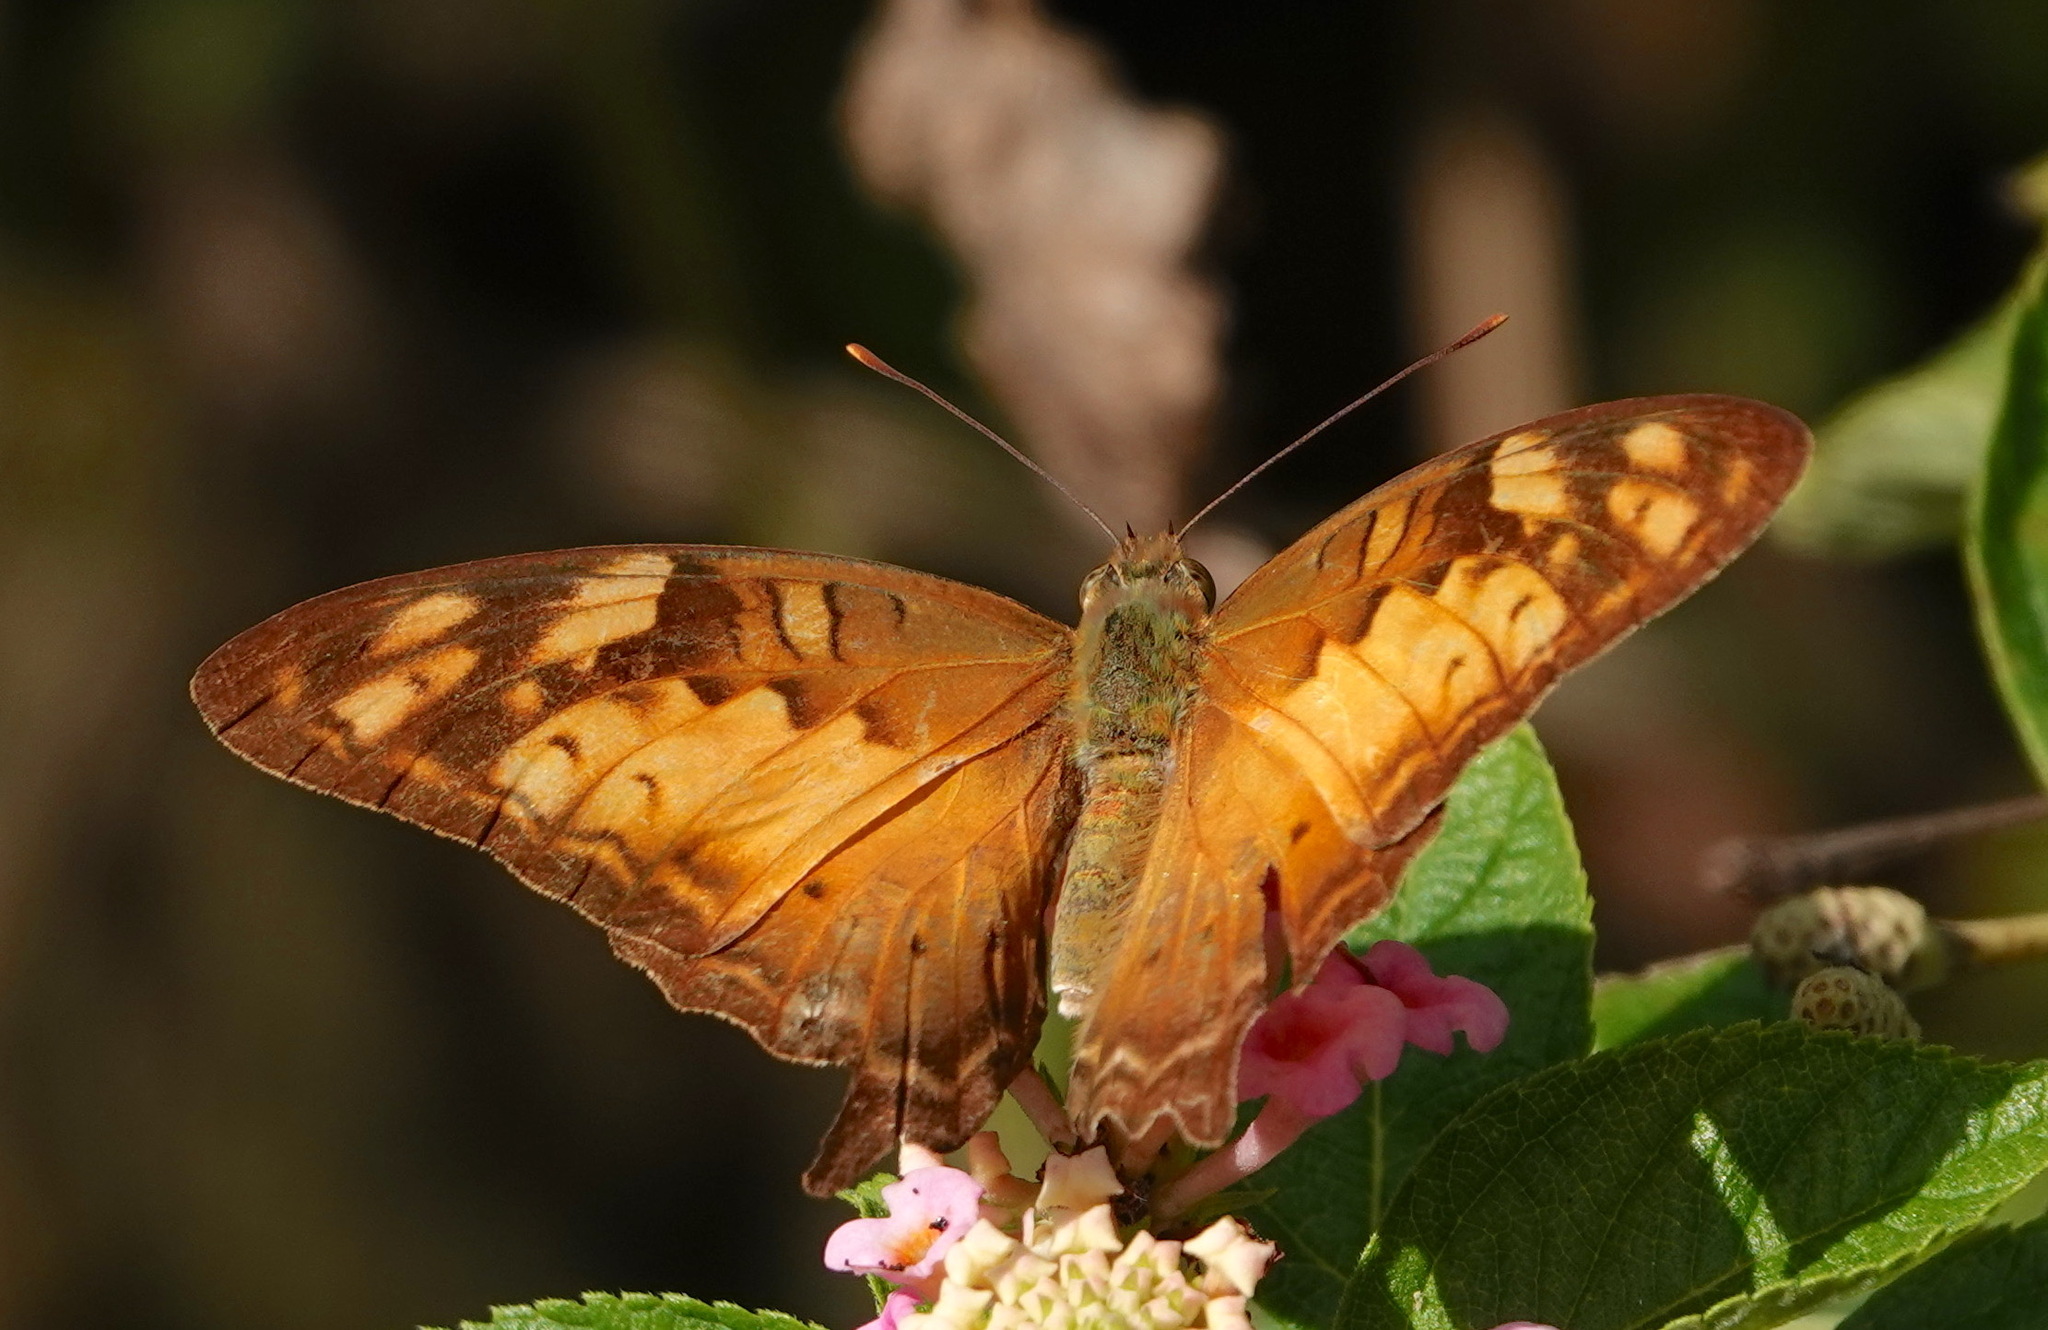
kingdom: Animalia
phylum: Arthropoda
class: Insecta
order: Lepidoptera
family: Nymphalidae
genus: Vagrans
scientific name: Vagrans sinha
